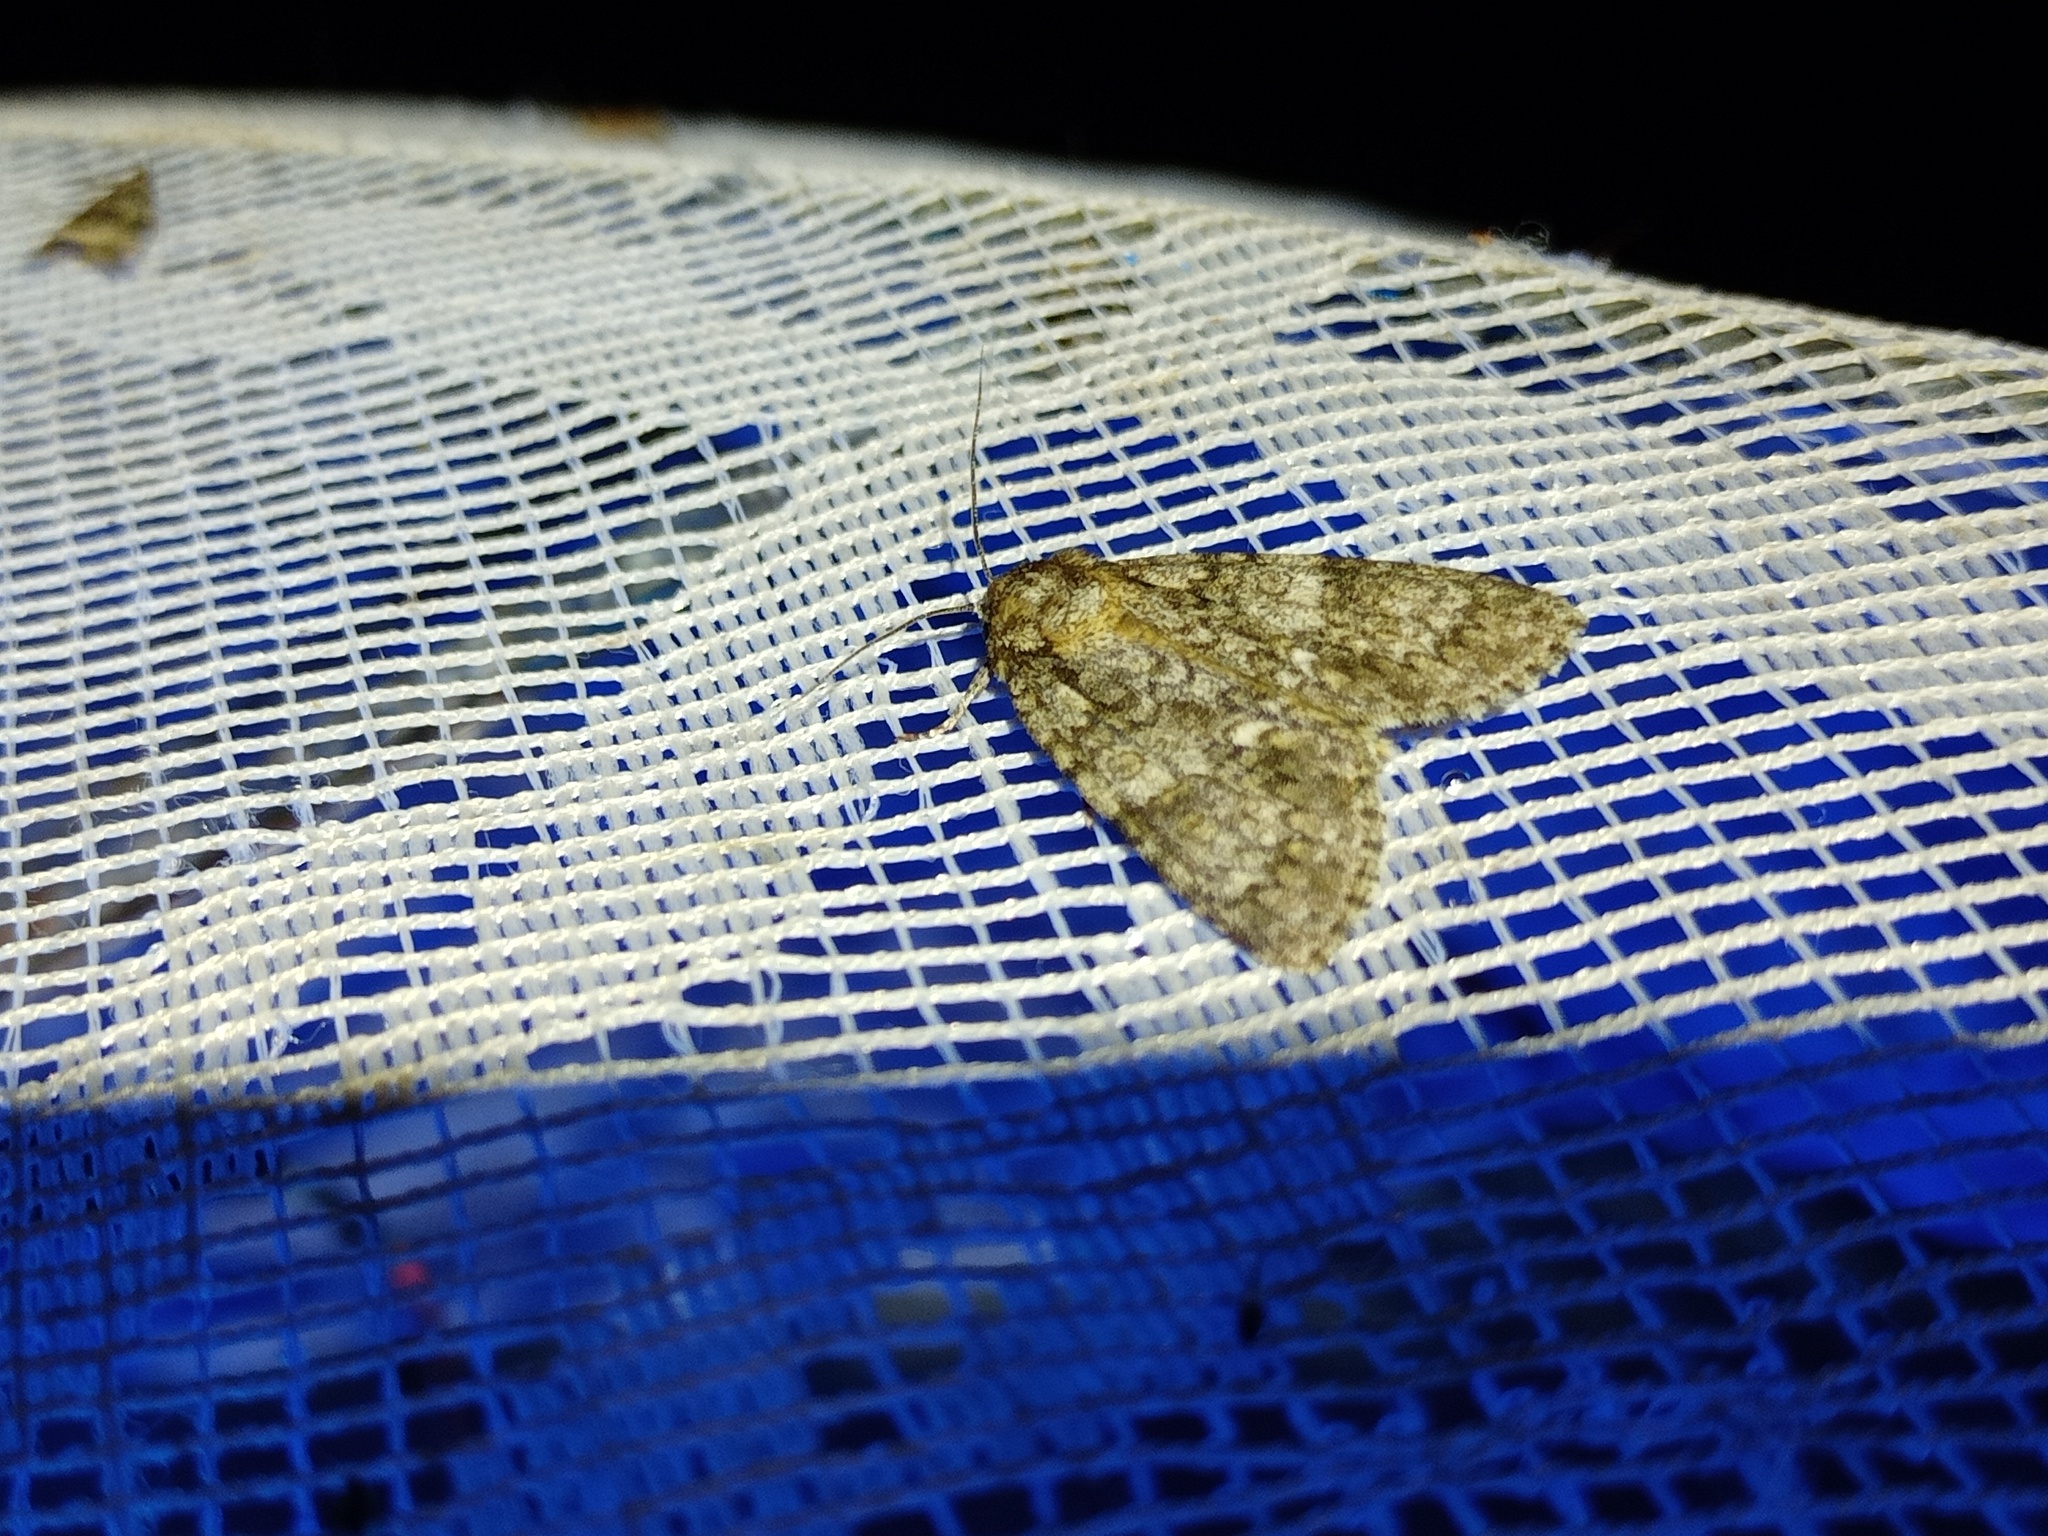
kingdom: Animalia
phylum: Arthropoda
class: Insecta
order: Lepidoptera
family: Noctuidae
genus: Acronicta
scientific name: Acronicta rumicis
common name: Knot grass
